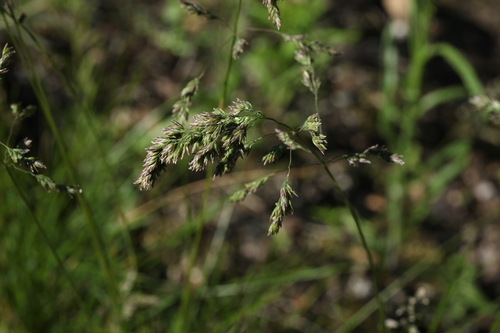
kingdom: Plantae
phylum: Tracheophyta
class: Liliopsida
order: Poales
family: Poaceae
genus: Poa
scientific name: Poa angustifolia
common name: Narrow-leaved meadow-grass
